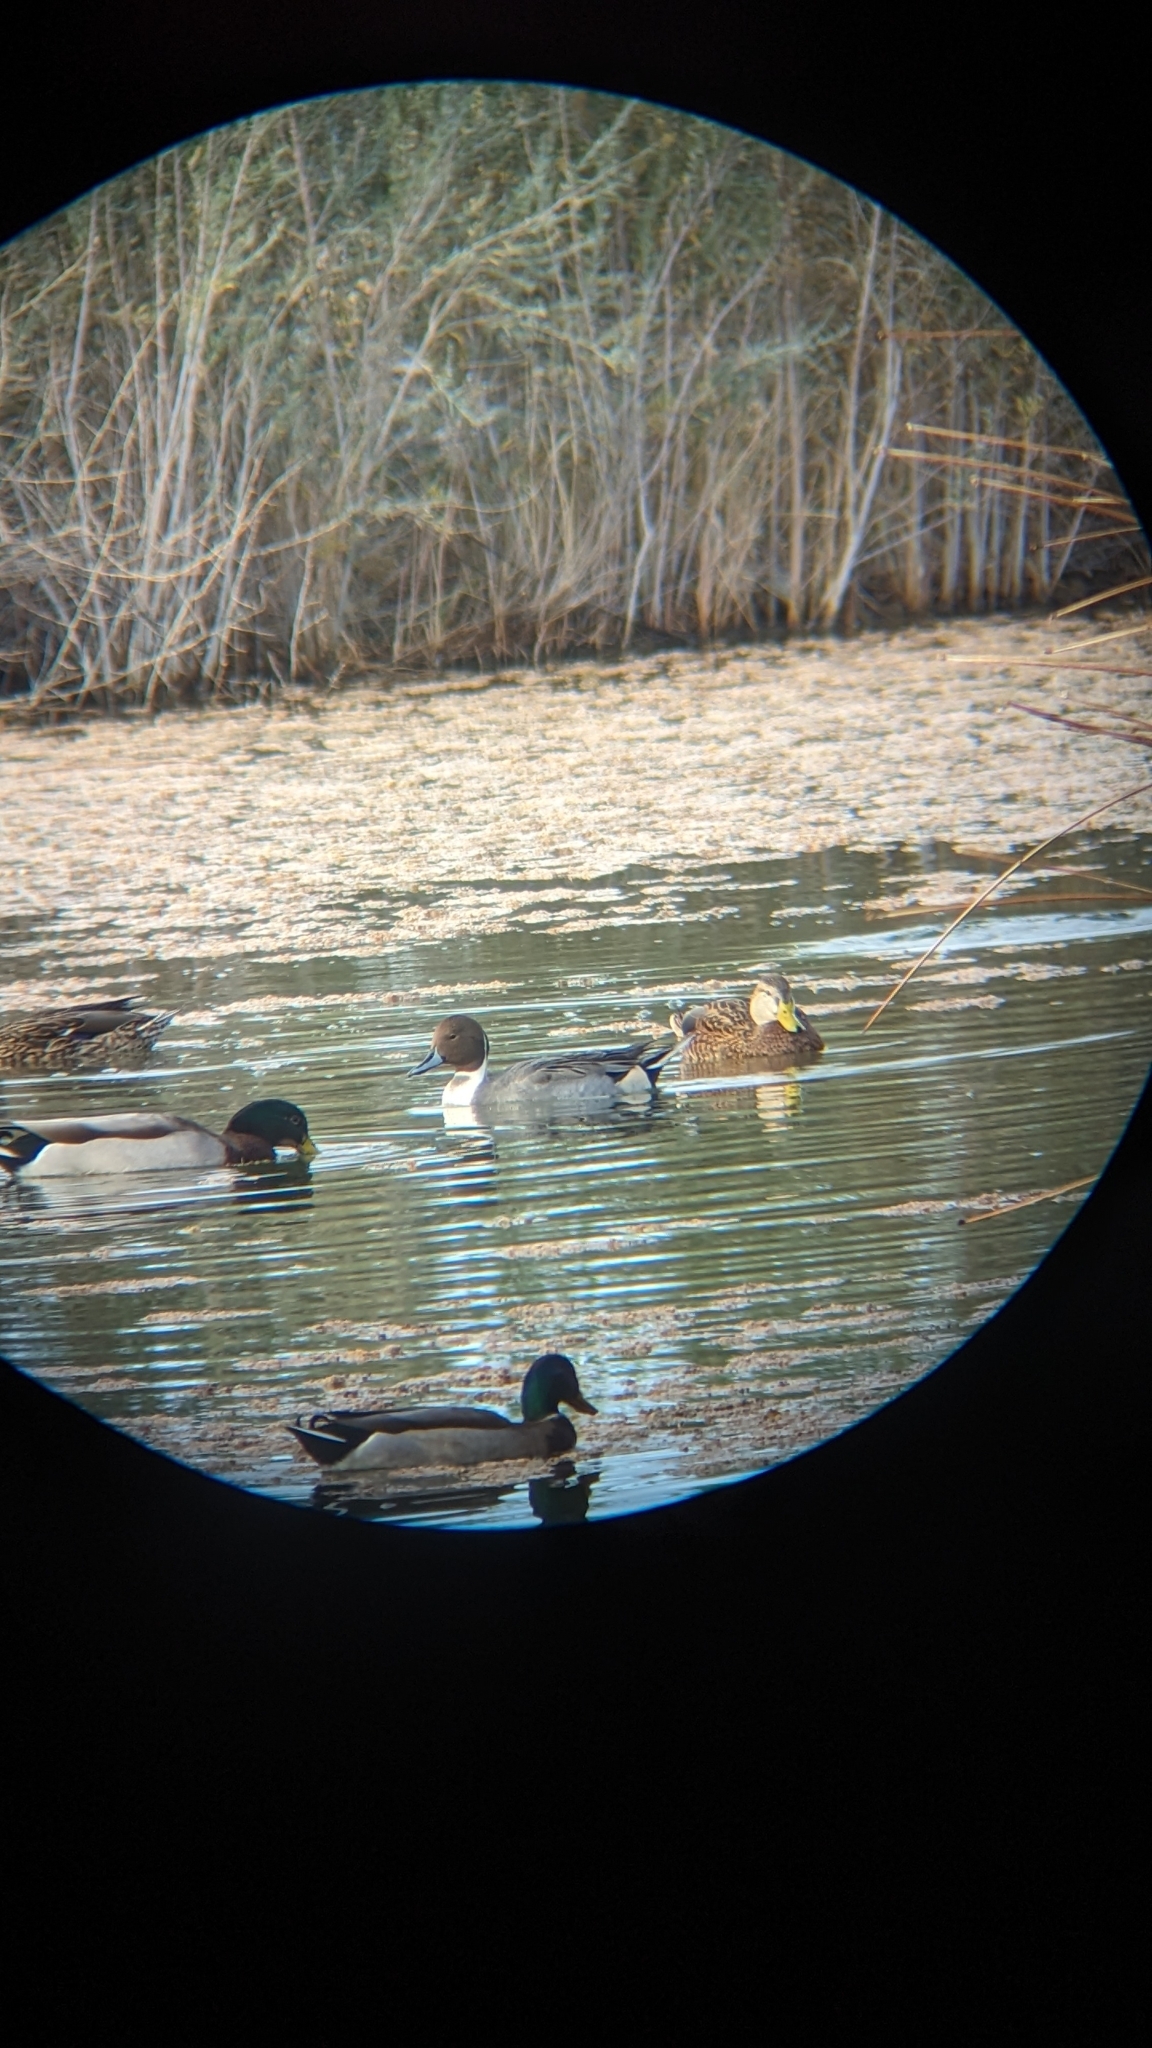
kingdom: Animalia
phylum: Chordata
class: Aves
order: Anseriformes
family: Anatidae
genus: Anas
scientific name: Anas acuta
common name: Northern pintail
